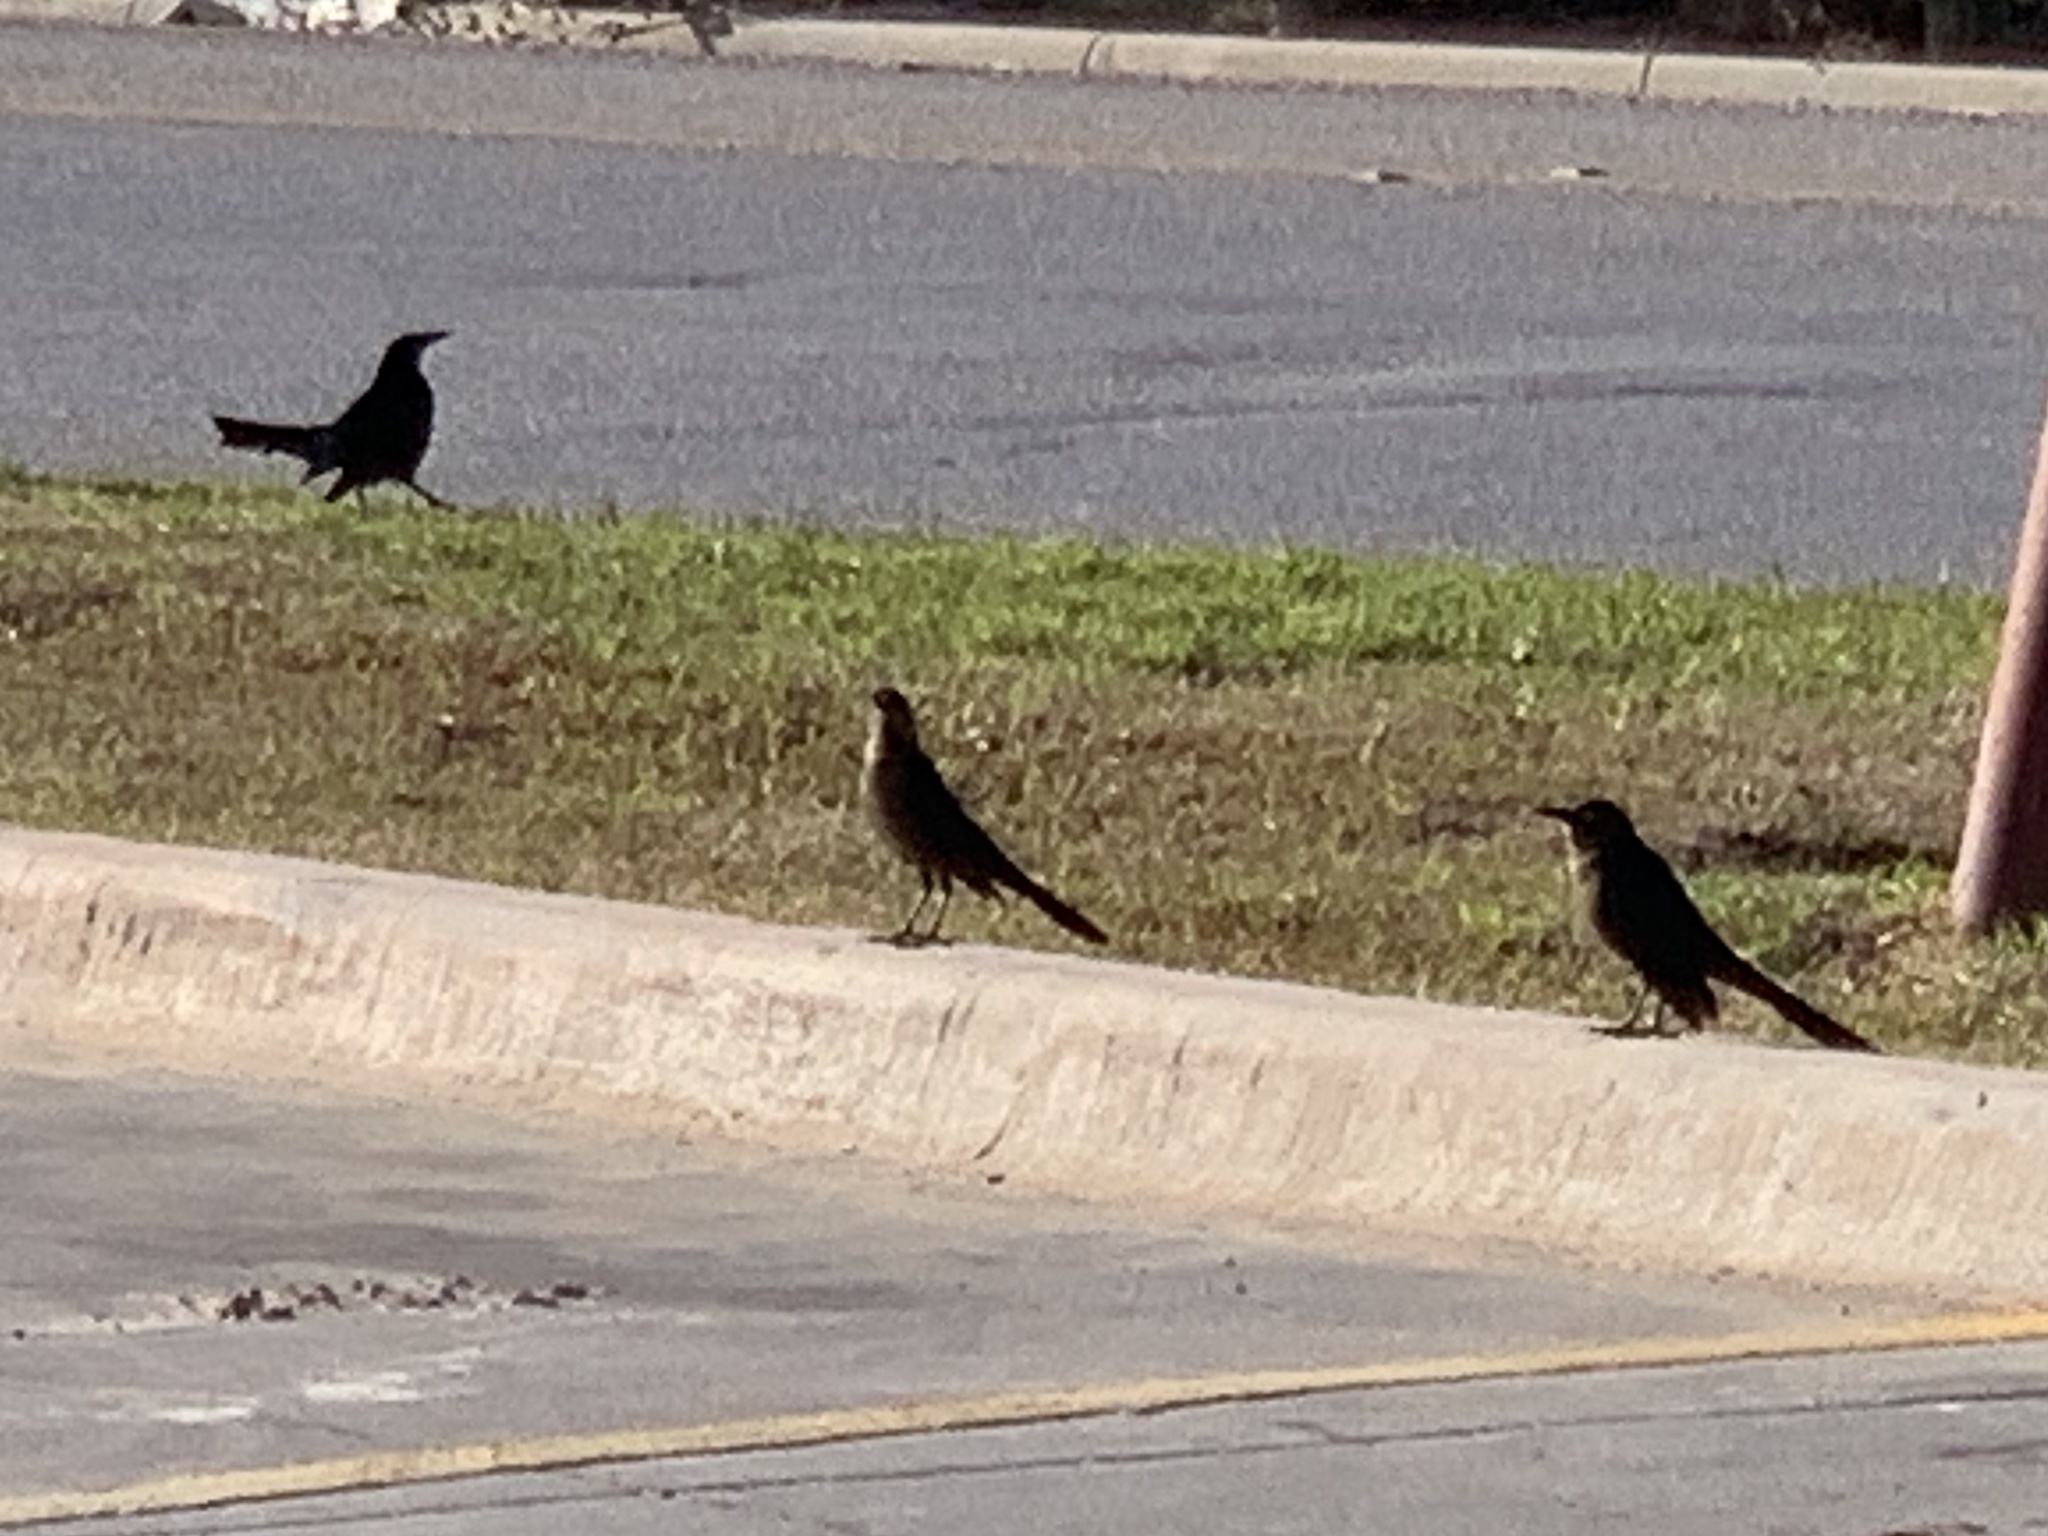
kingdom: Animalia
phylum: Chordata
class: Aves
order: Passeriformes
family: Icteridae
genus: Quiscalus
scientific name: Quiscalus mexicanus
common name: Great-tailed grackle
